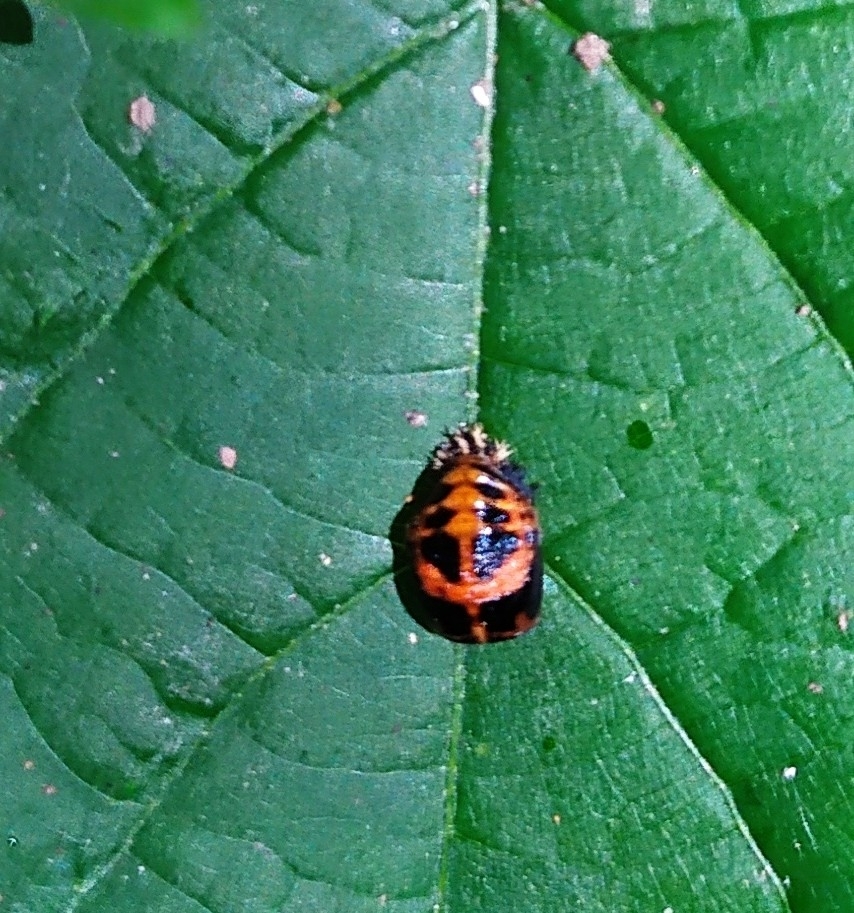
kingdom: Animalia
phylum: Arthropoda
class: Insecta
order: Coleoptera
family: Coccinellidae
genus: Harmonia
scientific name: Harmonia axyridis
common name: Harlequin ladybird
